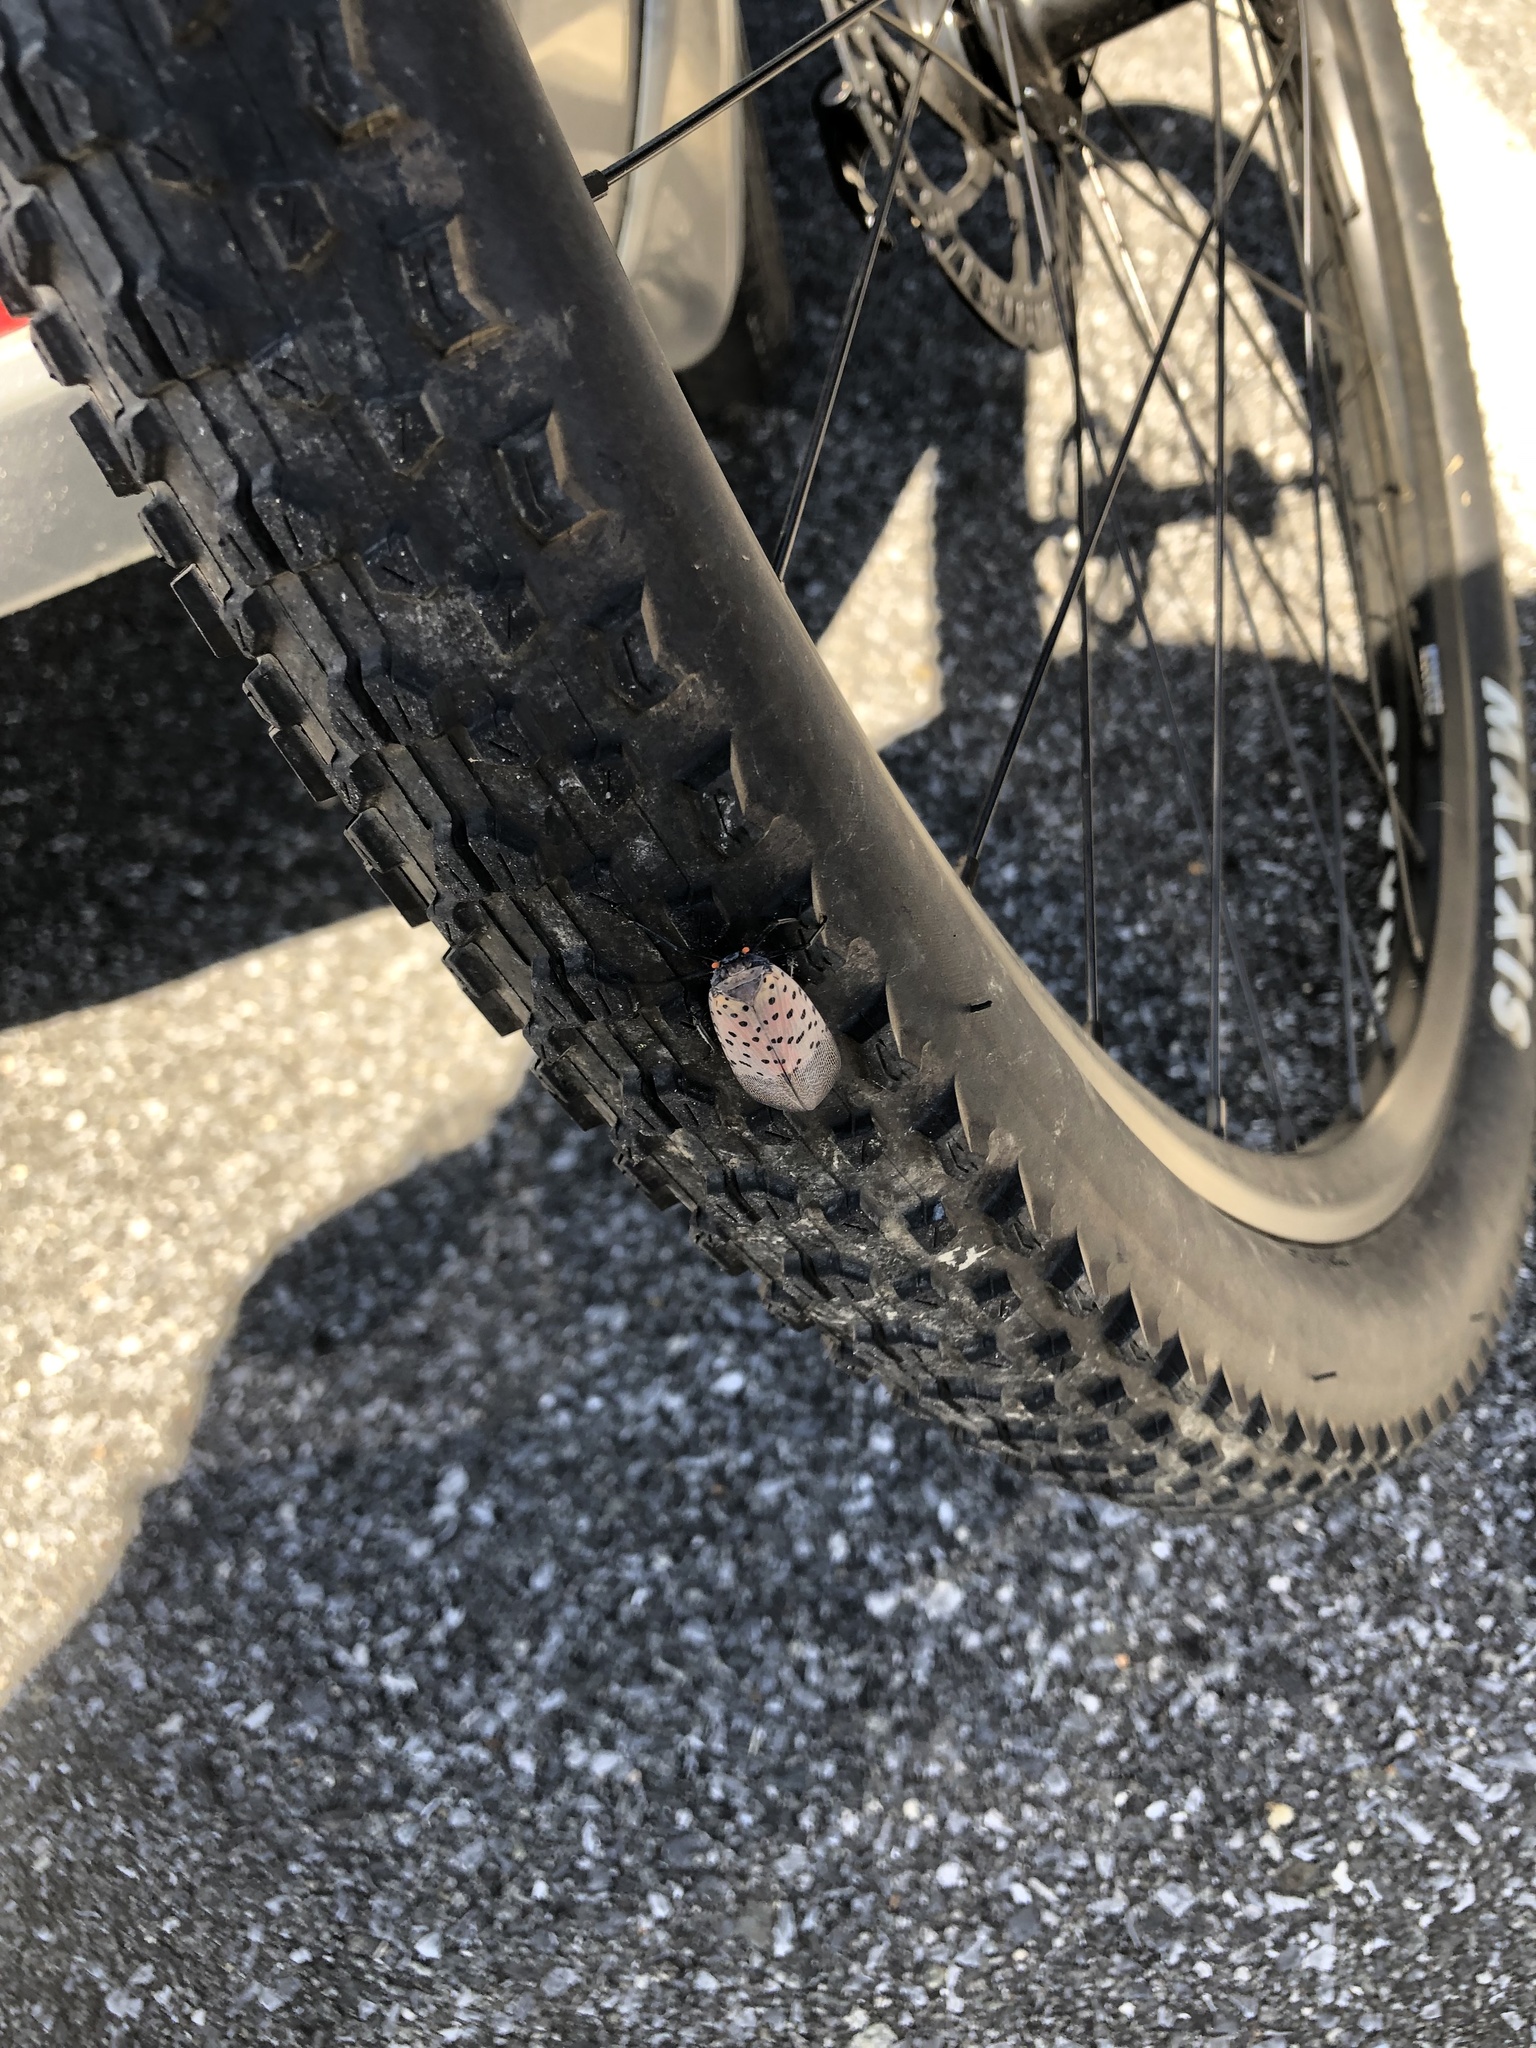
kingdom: Animalia
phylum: Arthropoda
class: Insecta
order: Hemiptera
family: Fulgoridae
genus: Lycorma
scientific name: Lycorma delicatula
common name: Spotted lanternfly
